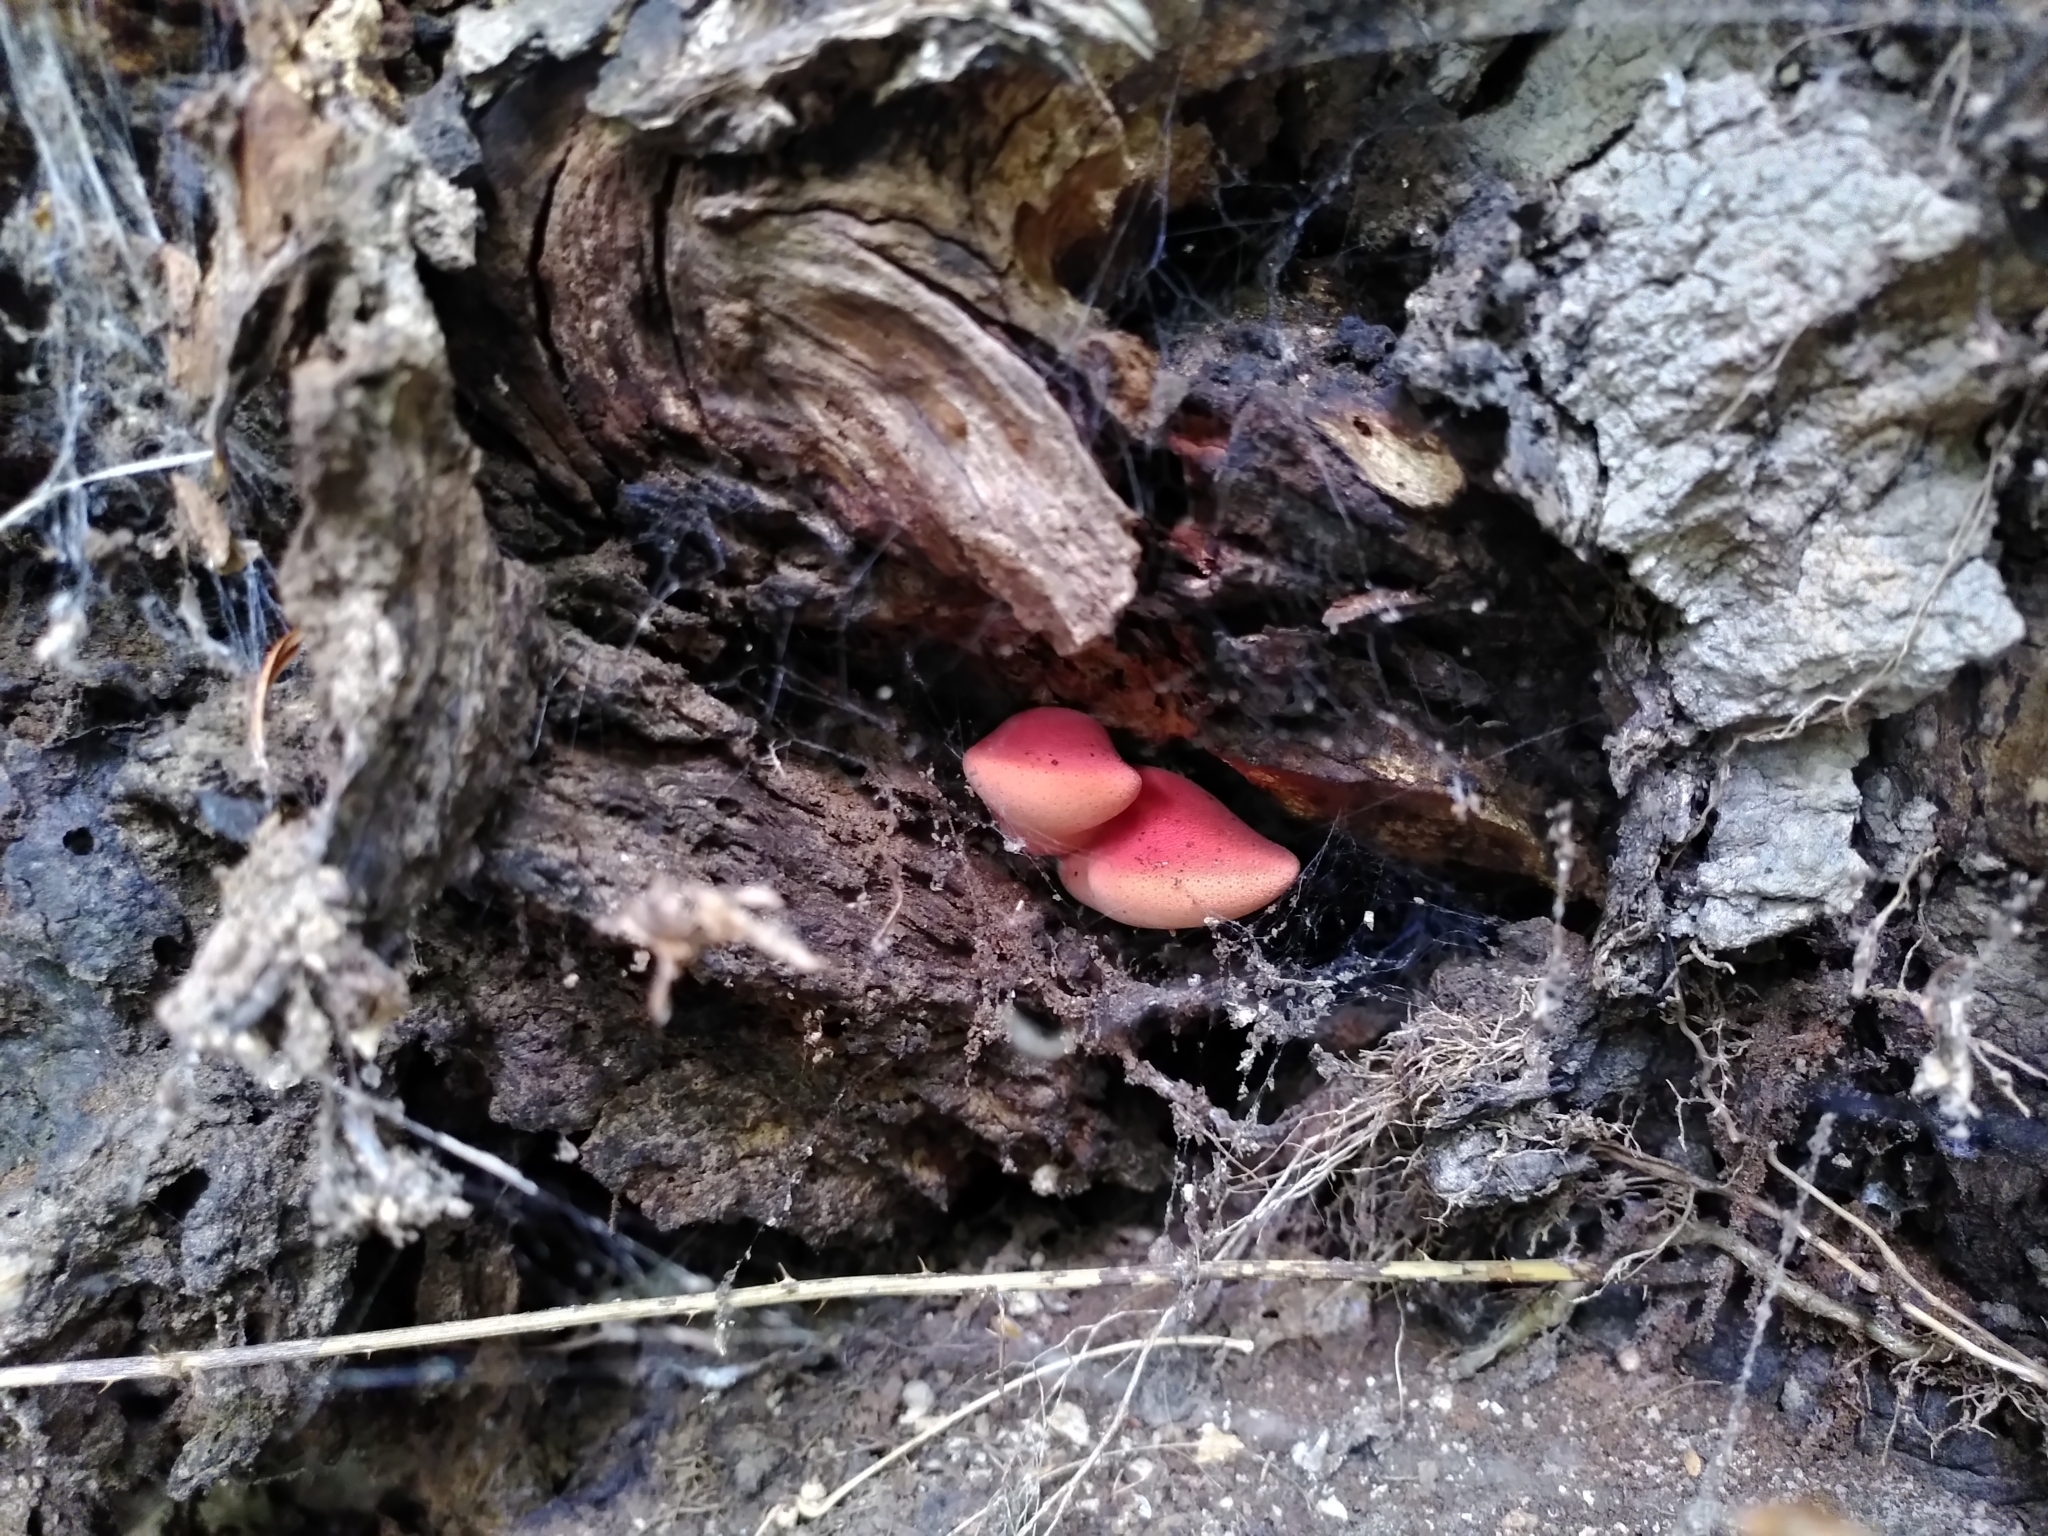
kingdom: Fungi
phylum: Basidiomycota
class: Agaricomycetes
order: Agaricales
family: Fistulinaceae
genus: Fistulina
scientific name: Fistulina hepatica
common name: Beef-steak fungus
